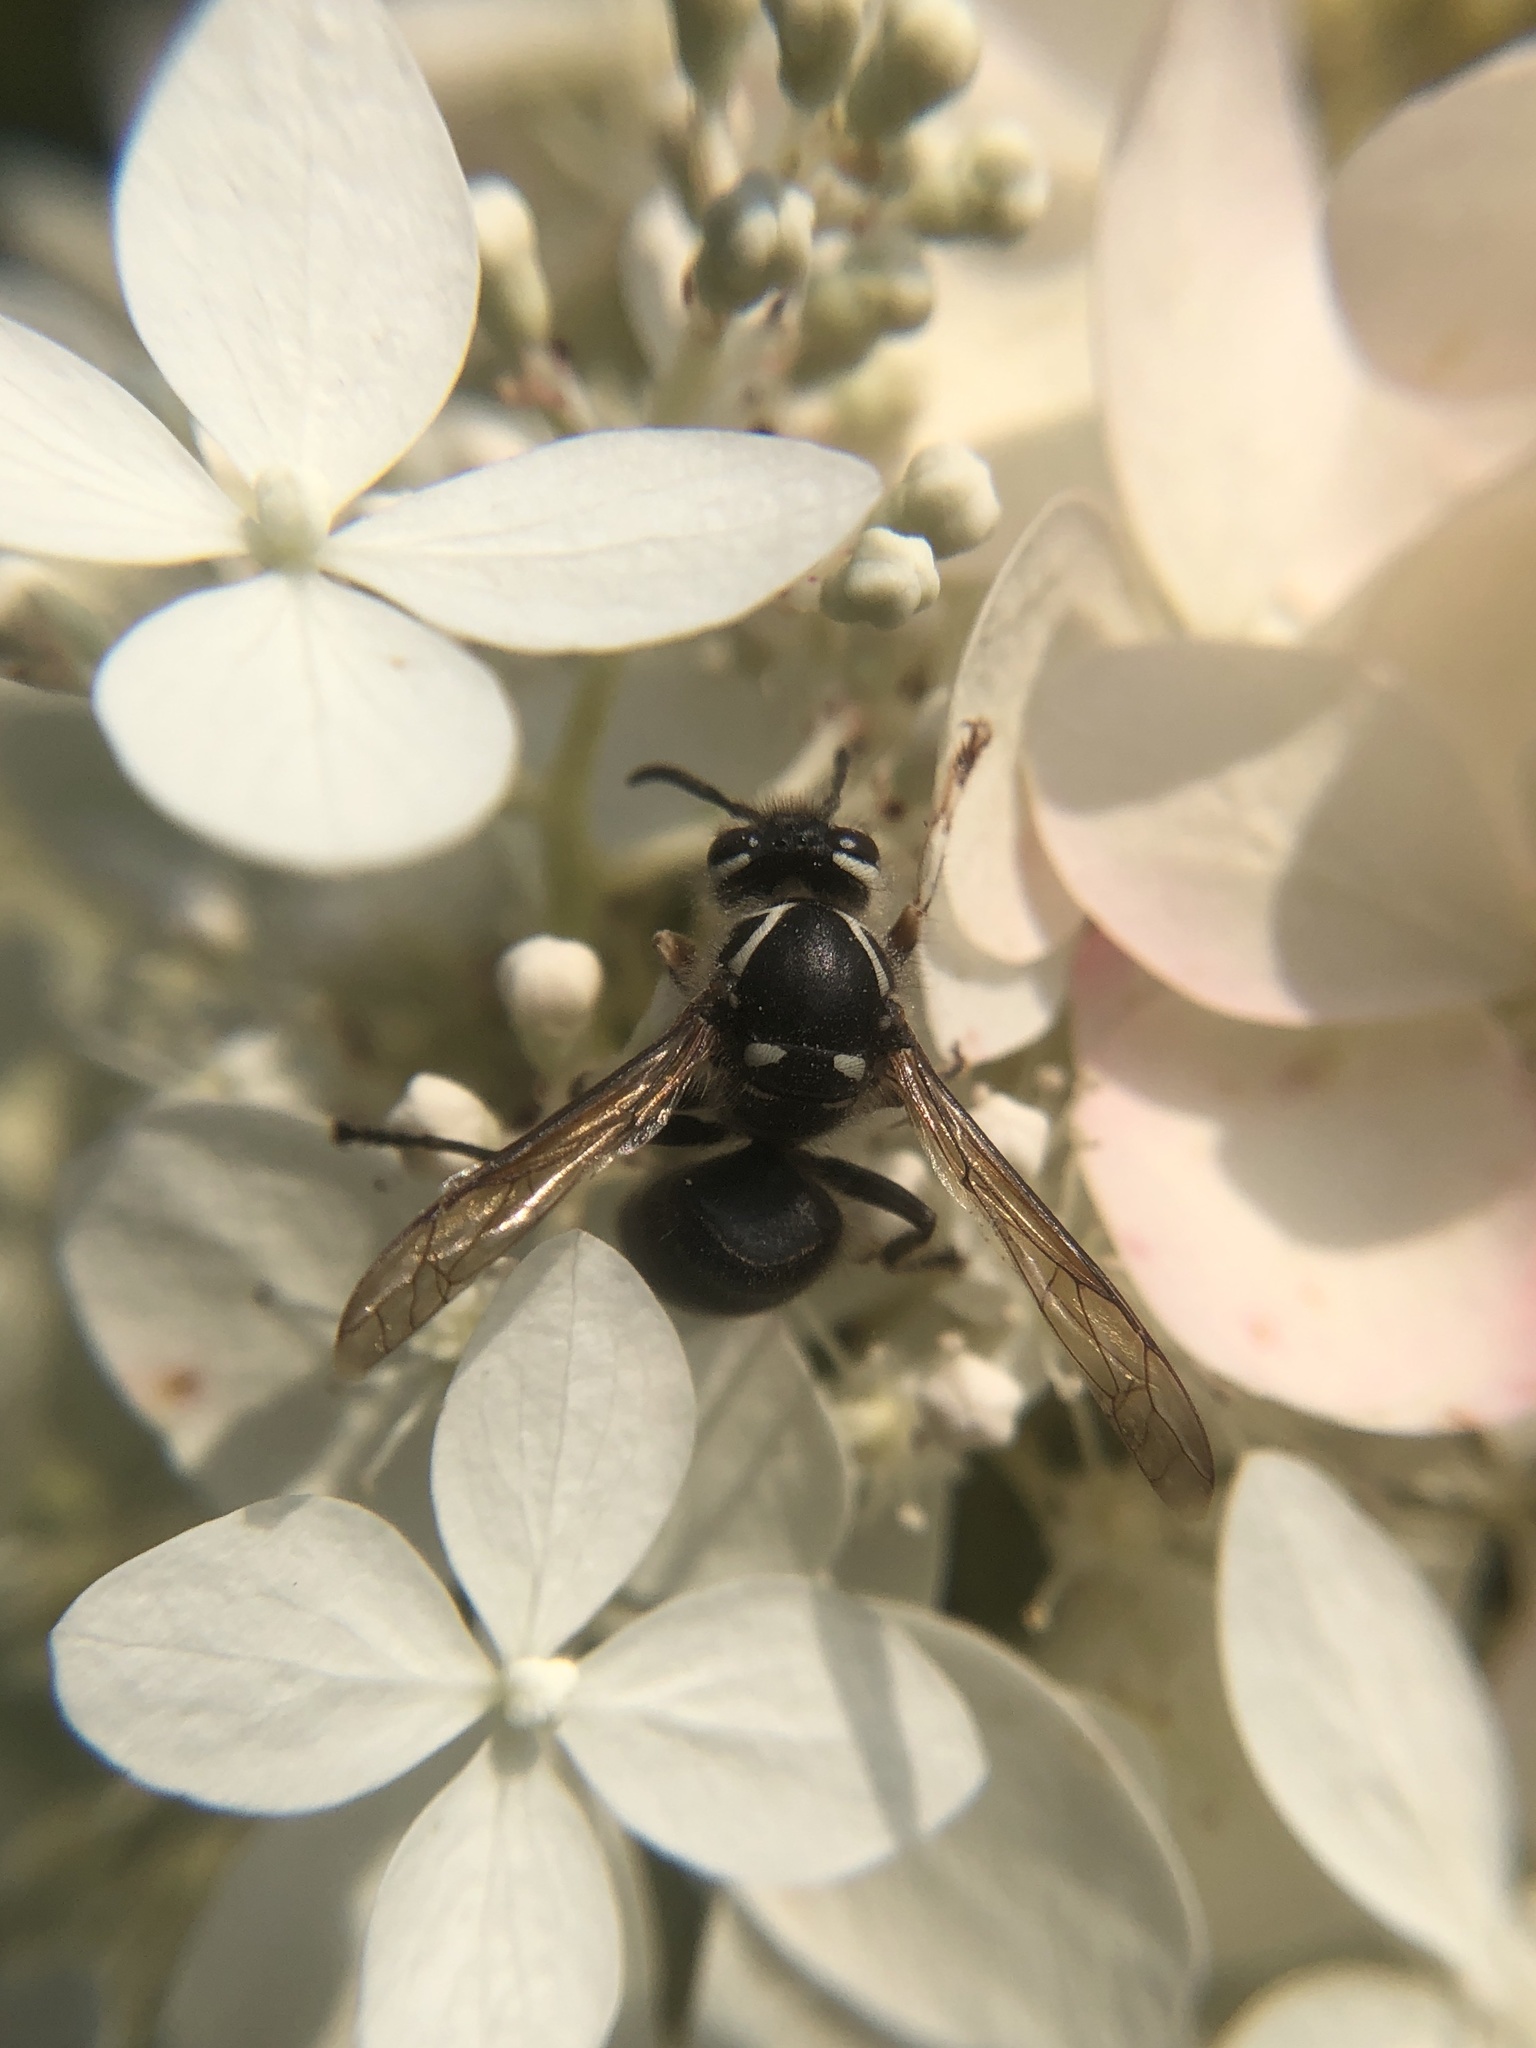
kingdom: Animalia
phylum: Arthropoda
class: Insecta
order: Hymenoptera
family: Vespidae
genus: Dolichovespula
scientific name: Dolichovespula maculata
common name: Bald-faced hornet
